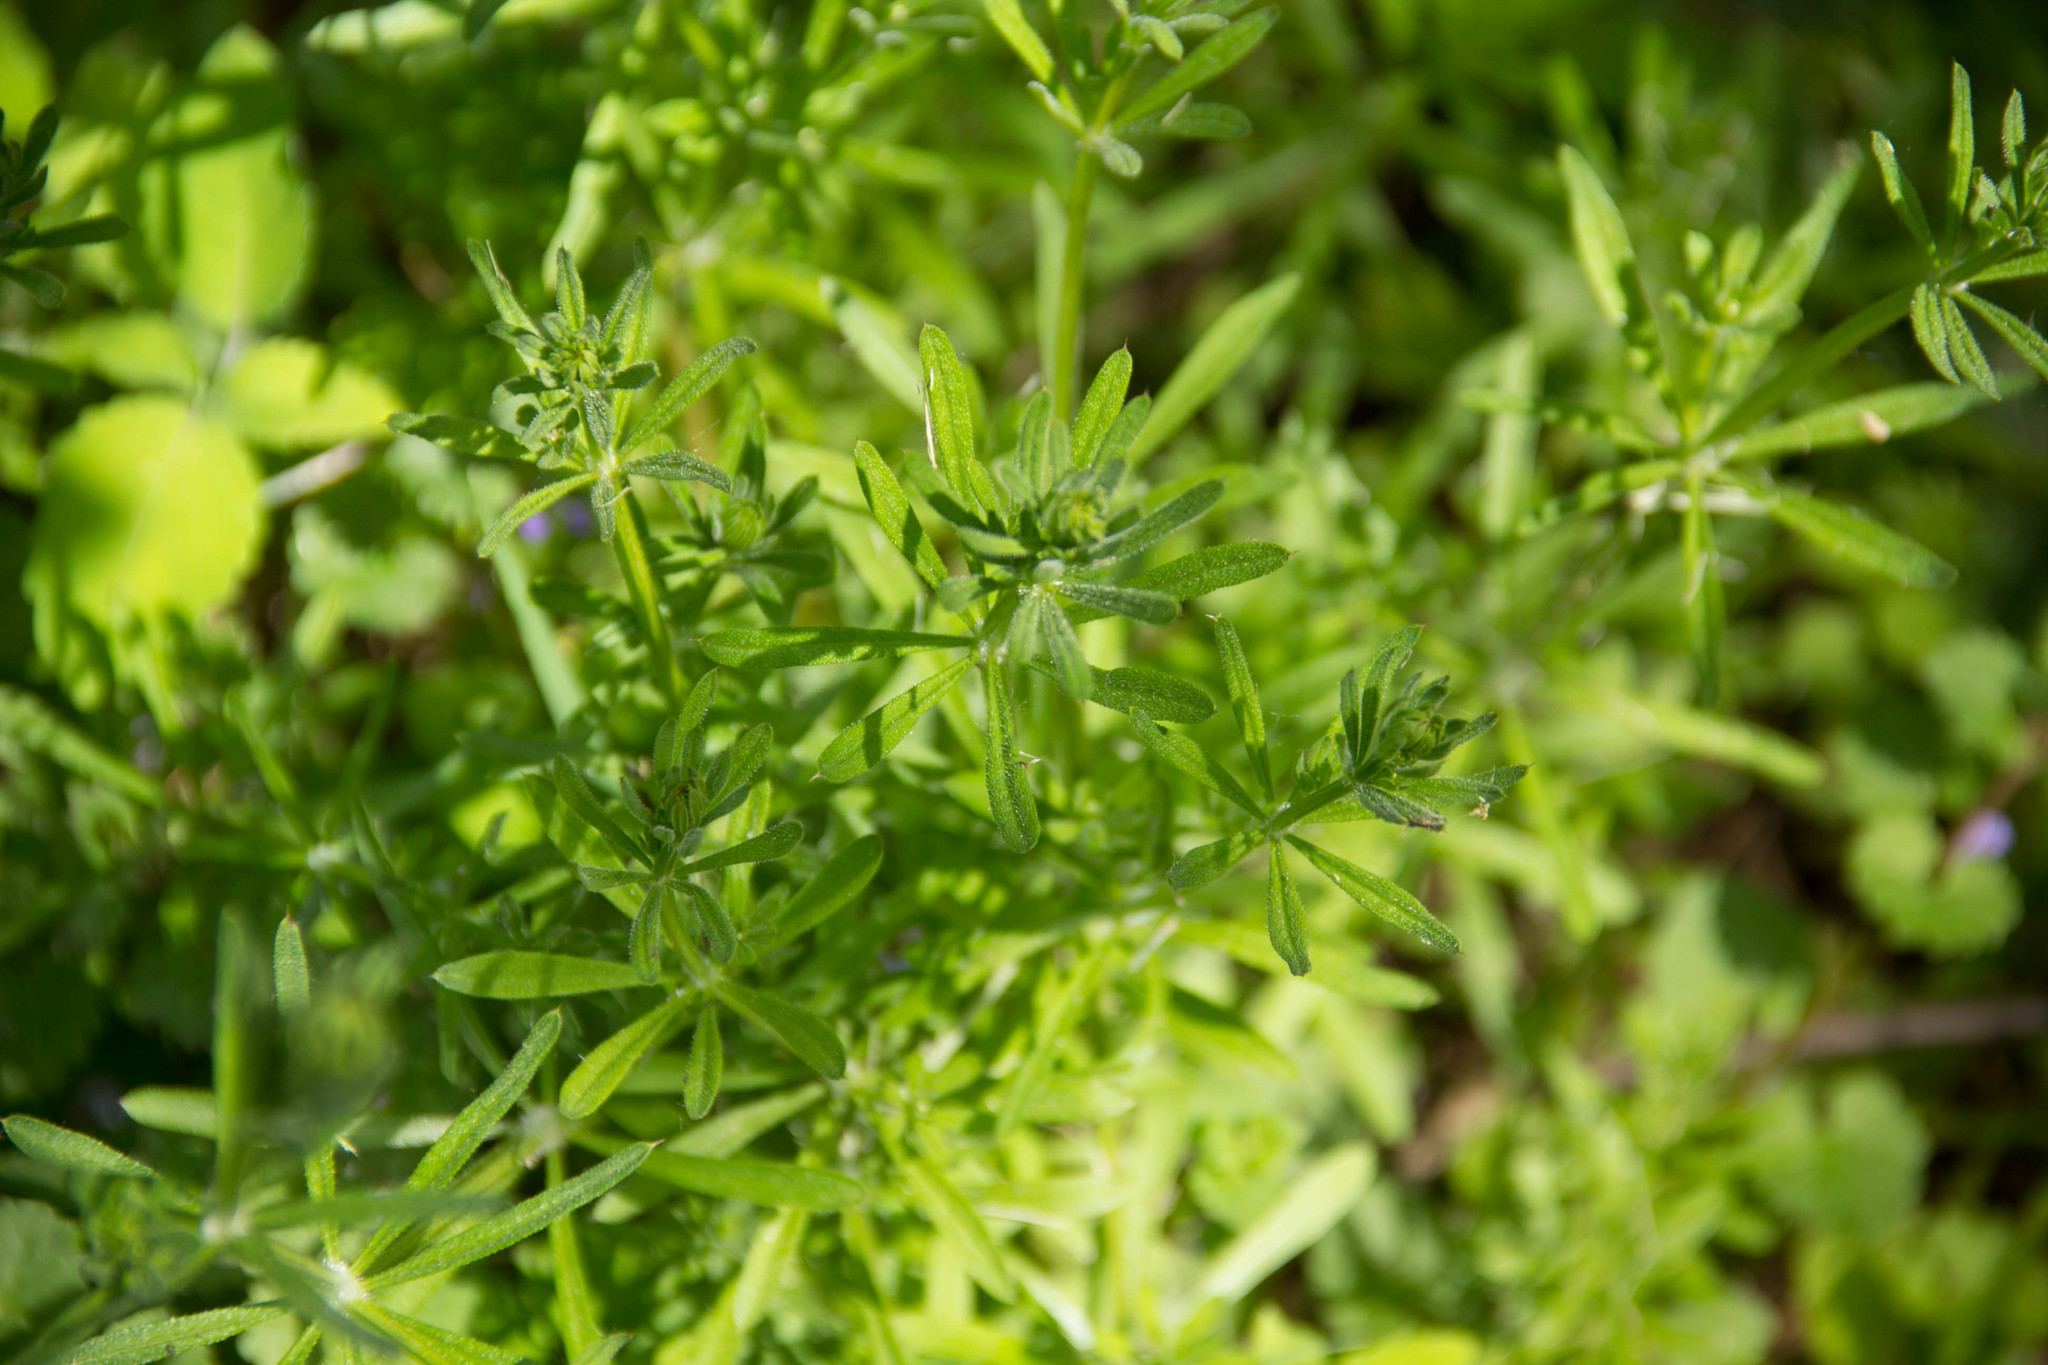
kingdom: Plantae
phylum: Tracheophyta
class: Magnoliopsida
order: Gentianales
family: Rubiaceae
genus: Galium
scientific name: Galium aparine
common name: Cleavers
